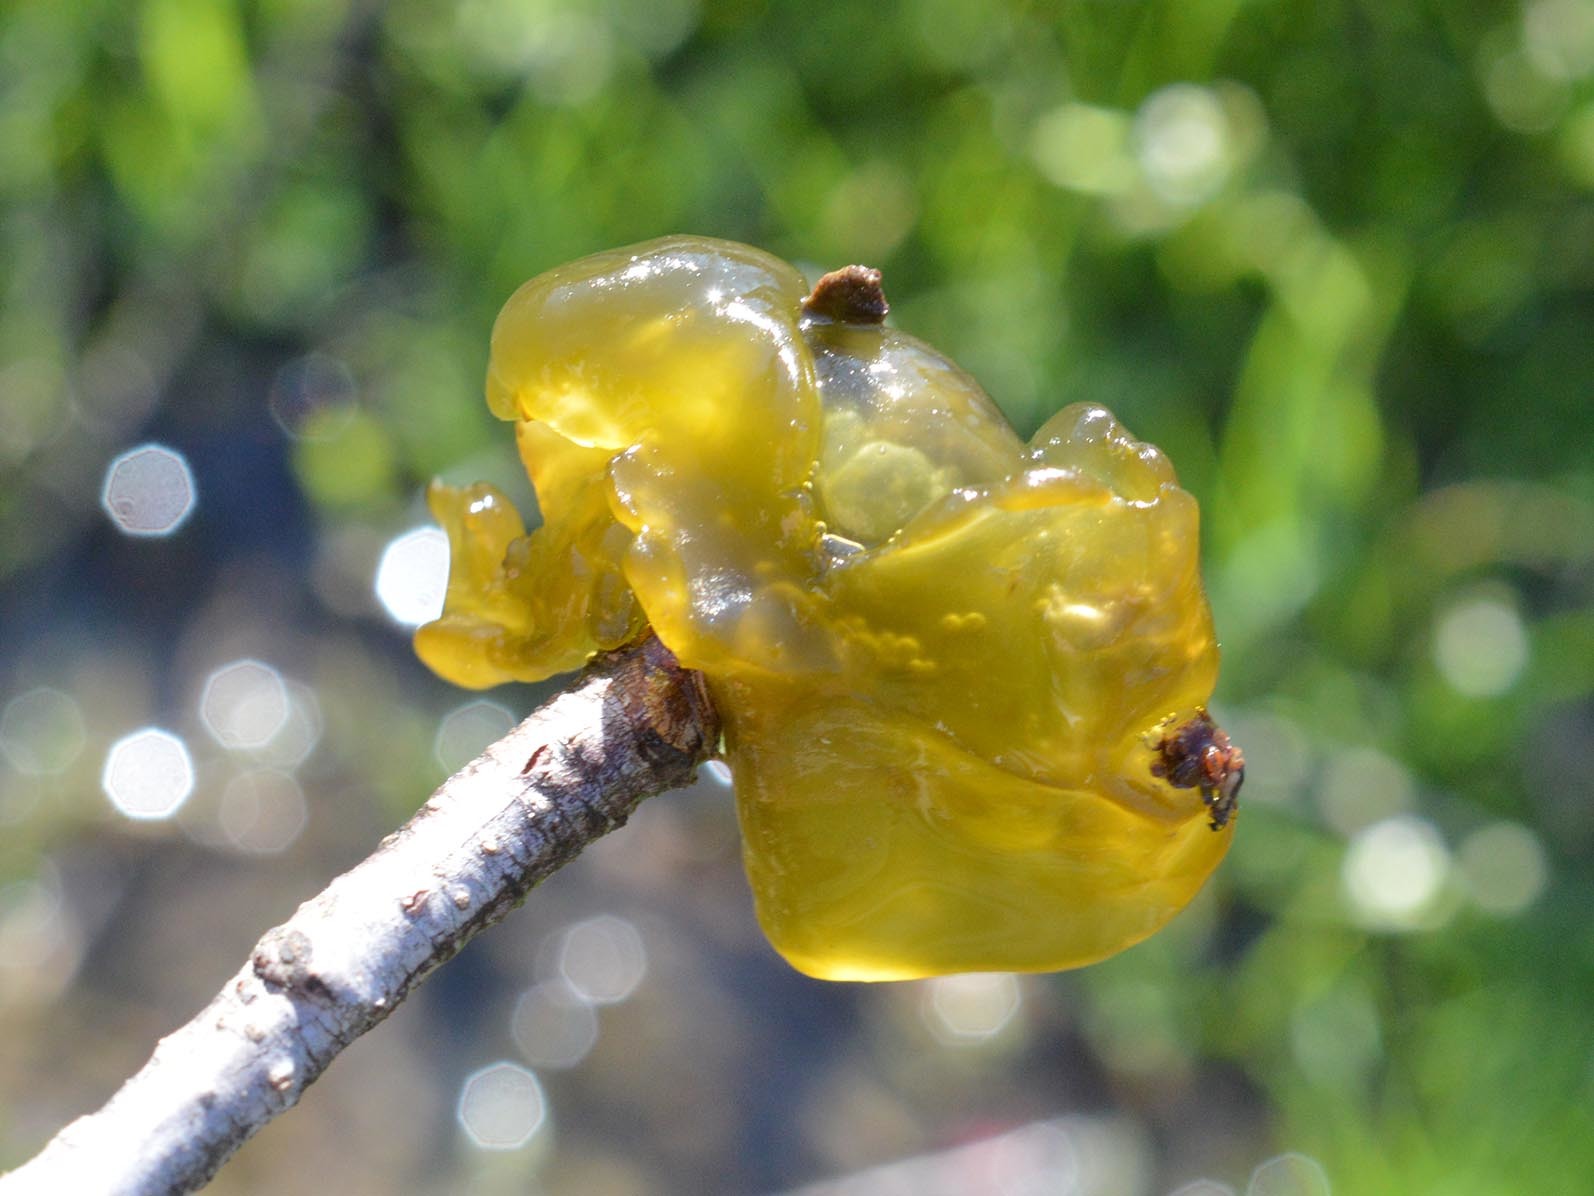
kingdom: Bacteria
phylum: Cyanobacteria
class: Cyanobacteriia
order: Cyanobacteriales
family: Nostocaceae
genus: Nostoc
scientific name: Nostoc commune
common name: Star jelly
